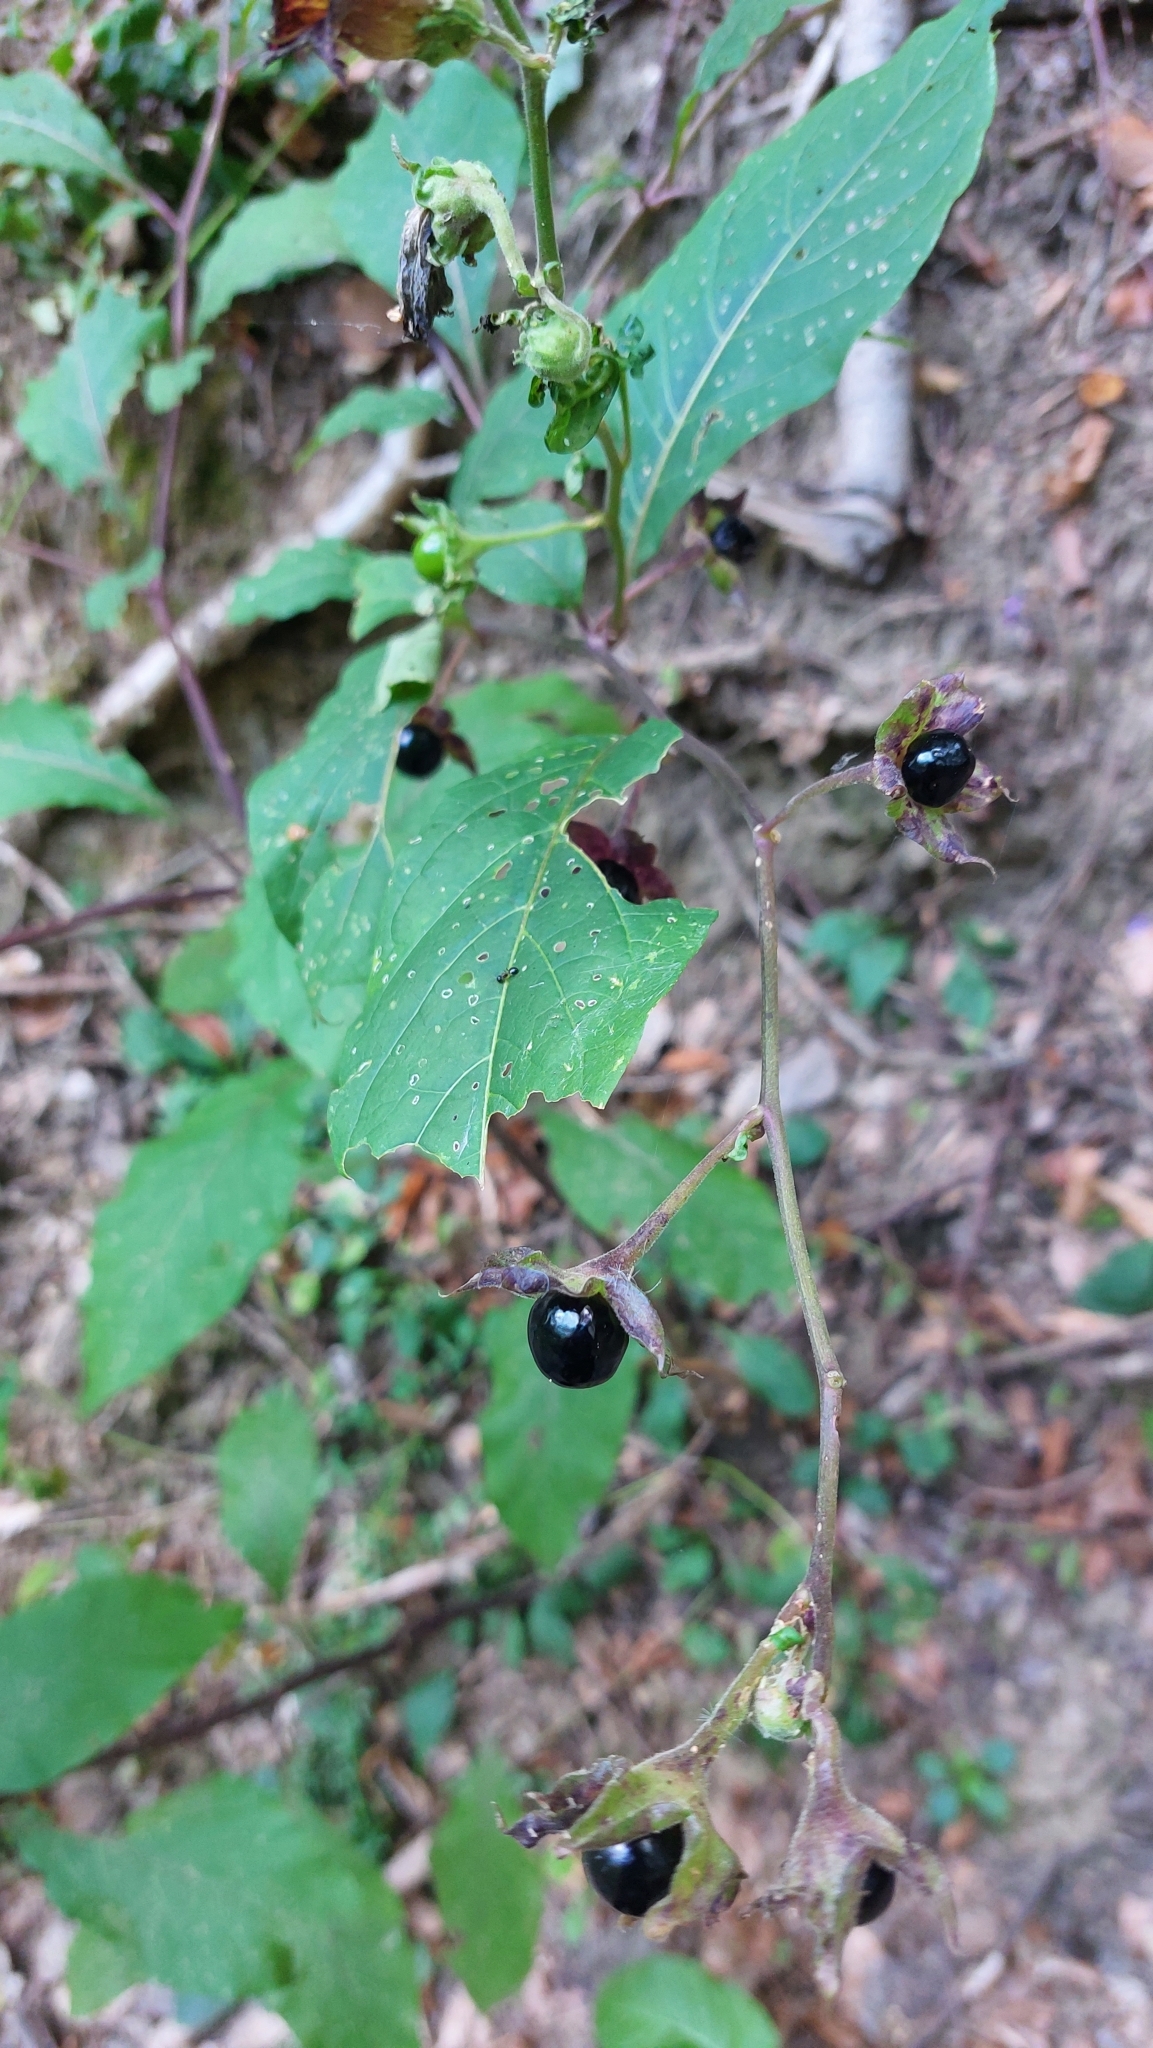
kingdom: Plantae
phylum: Tracheophyta
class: Magnoliopsida
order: Solanales
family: Solanaceae
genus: Atropa
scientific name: Atropa belladonna
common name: Deadly nightshade
